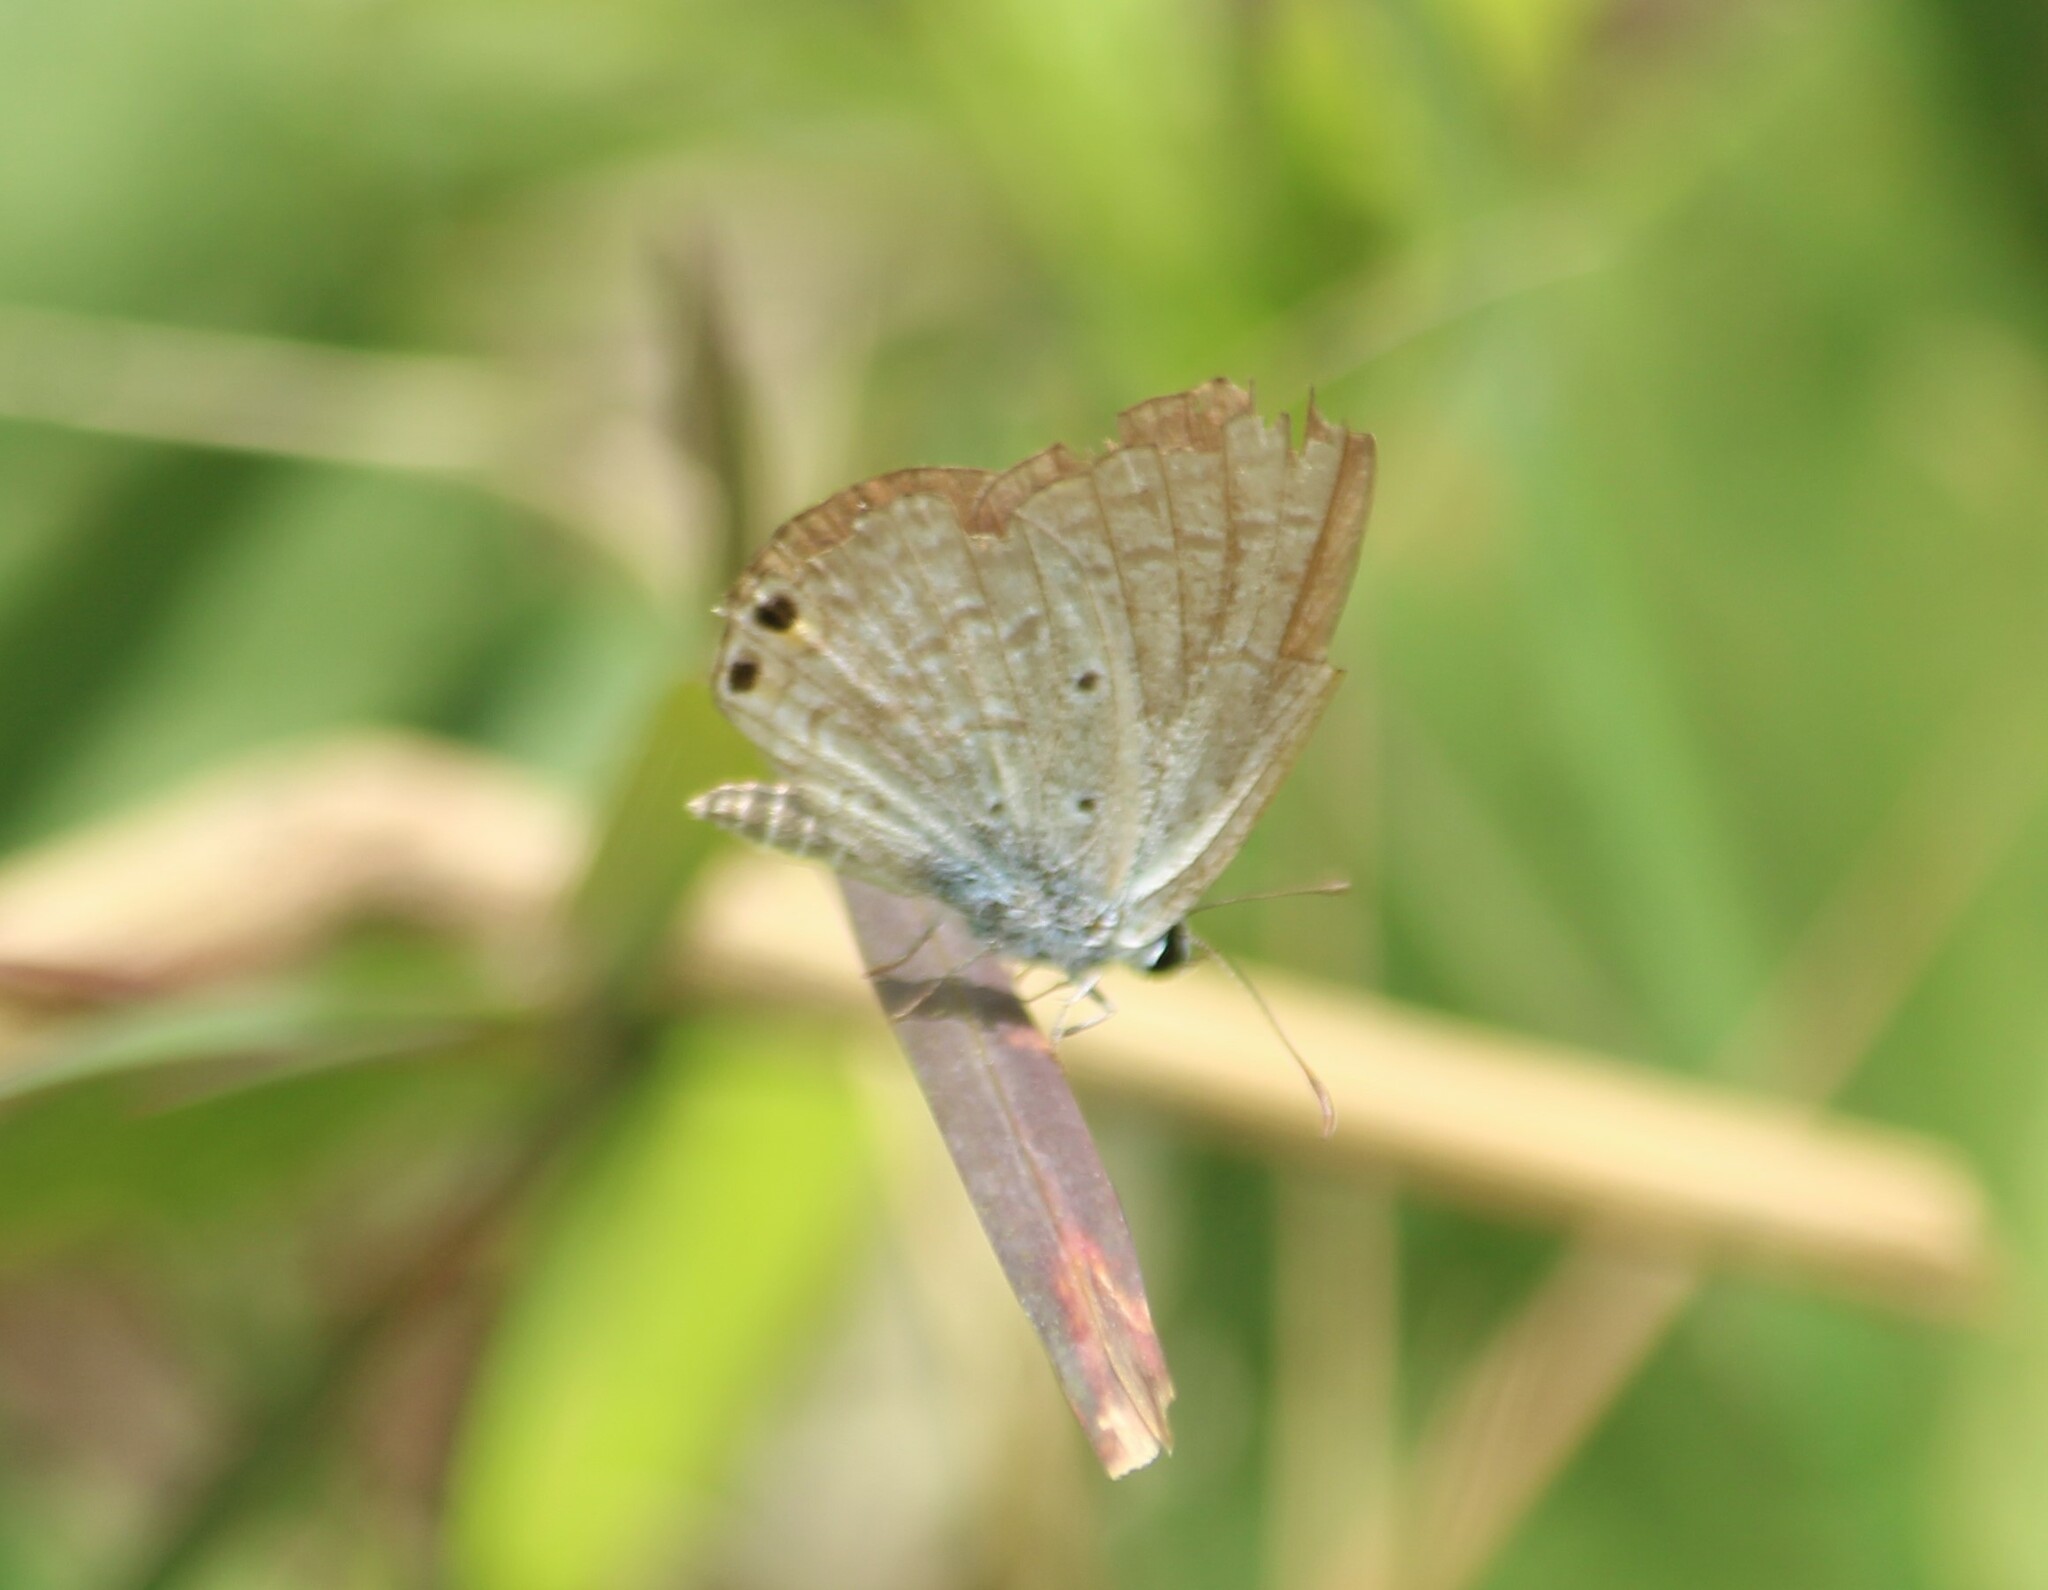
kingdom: Animalia
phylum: Arthropoda
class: Insecta
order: Lepidoptera
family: Lycaenidae
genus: Euchrysops
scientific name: Euchrysops cnejus
